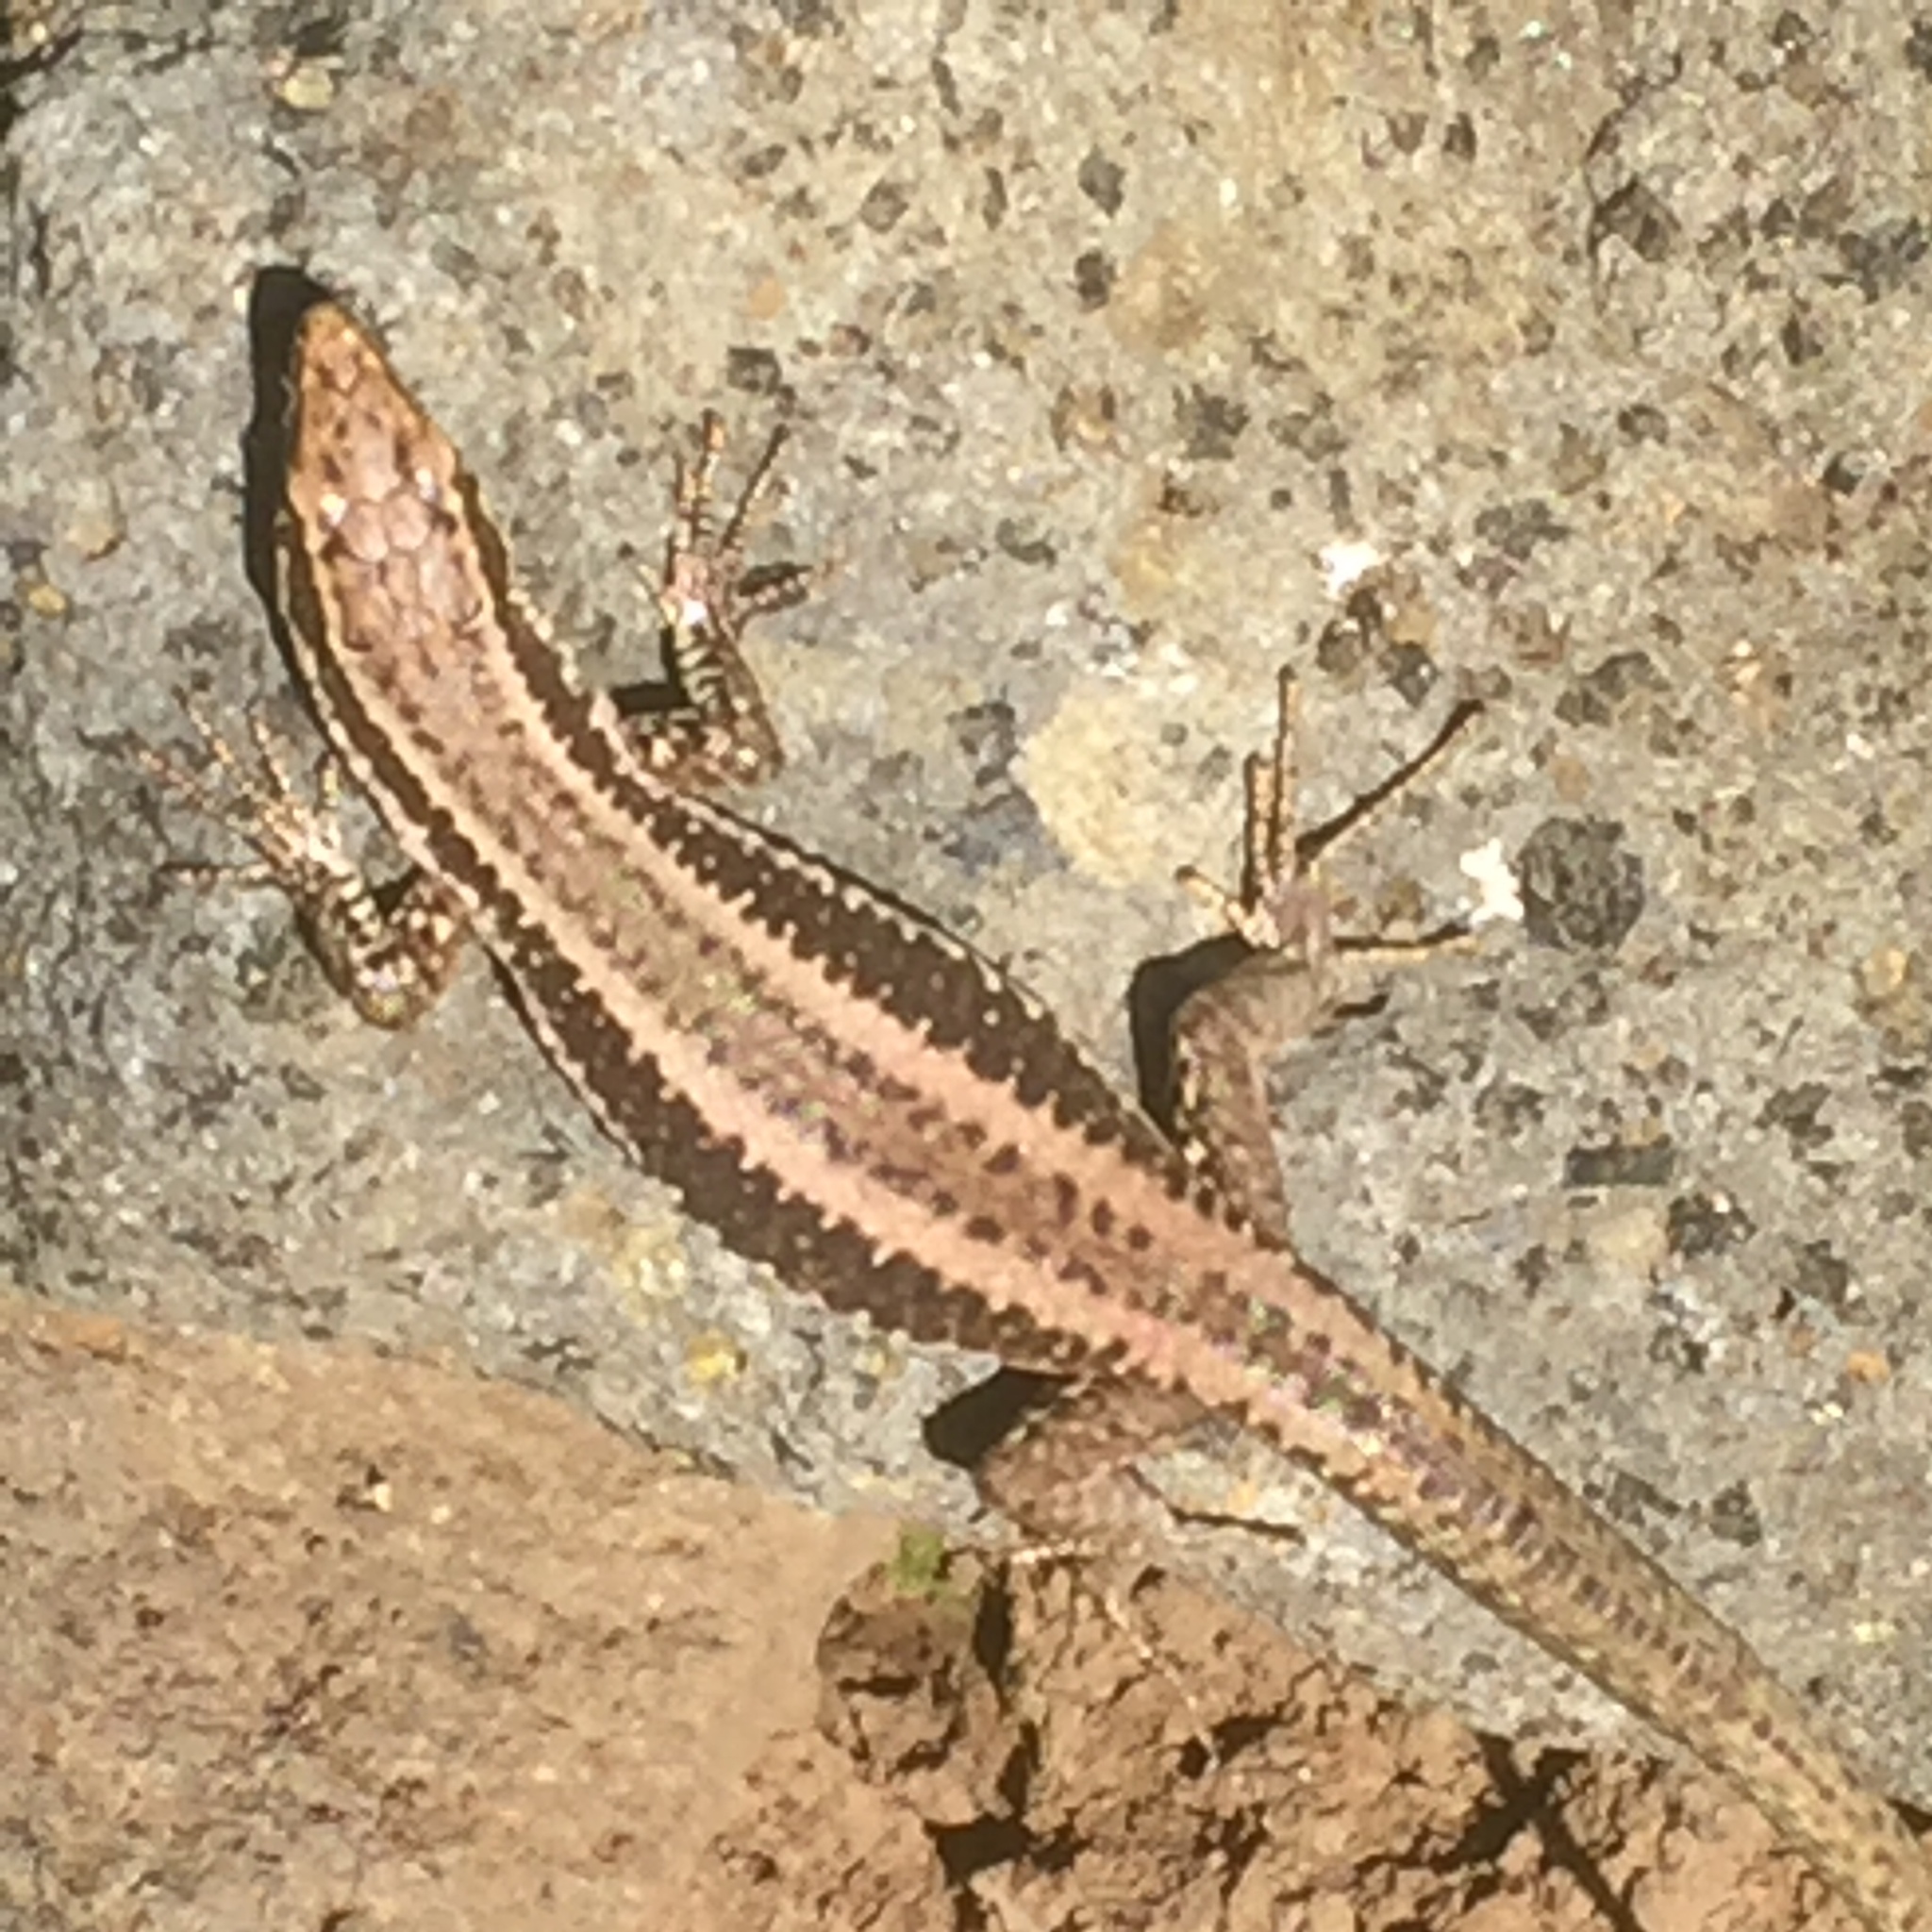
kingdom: Animalia
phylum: Chordata
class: Squamata
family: Lacertidae
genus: Teira
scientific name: Teira dugesii
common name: Madeira lizard
